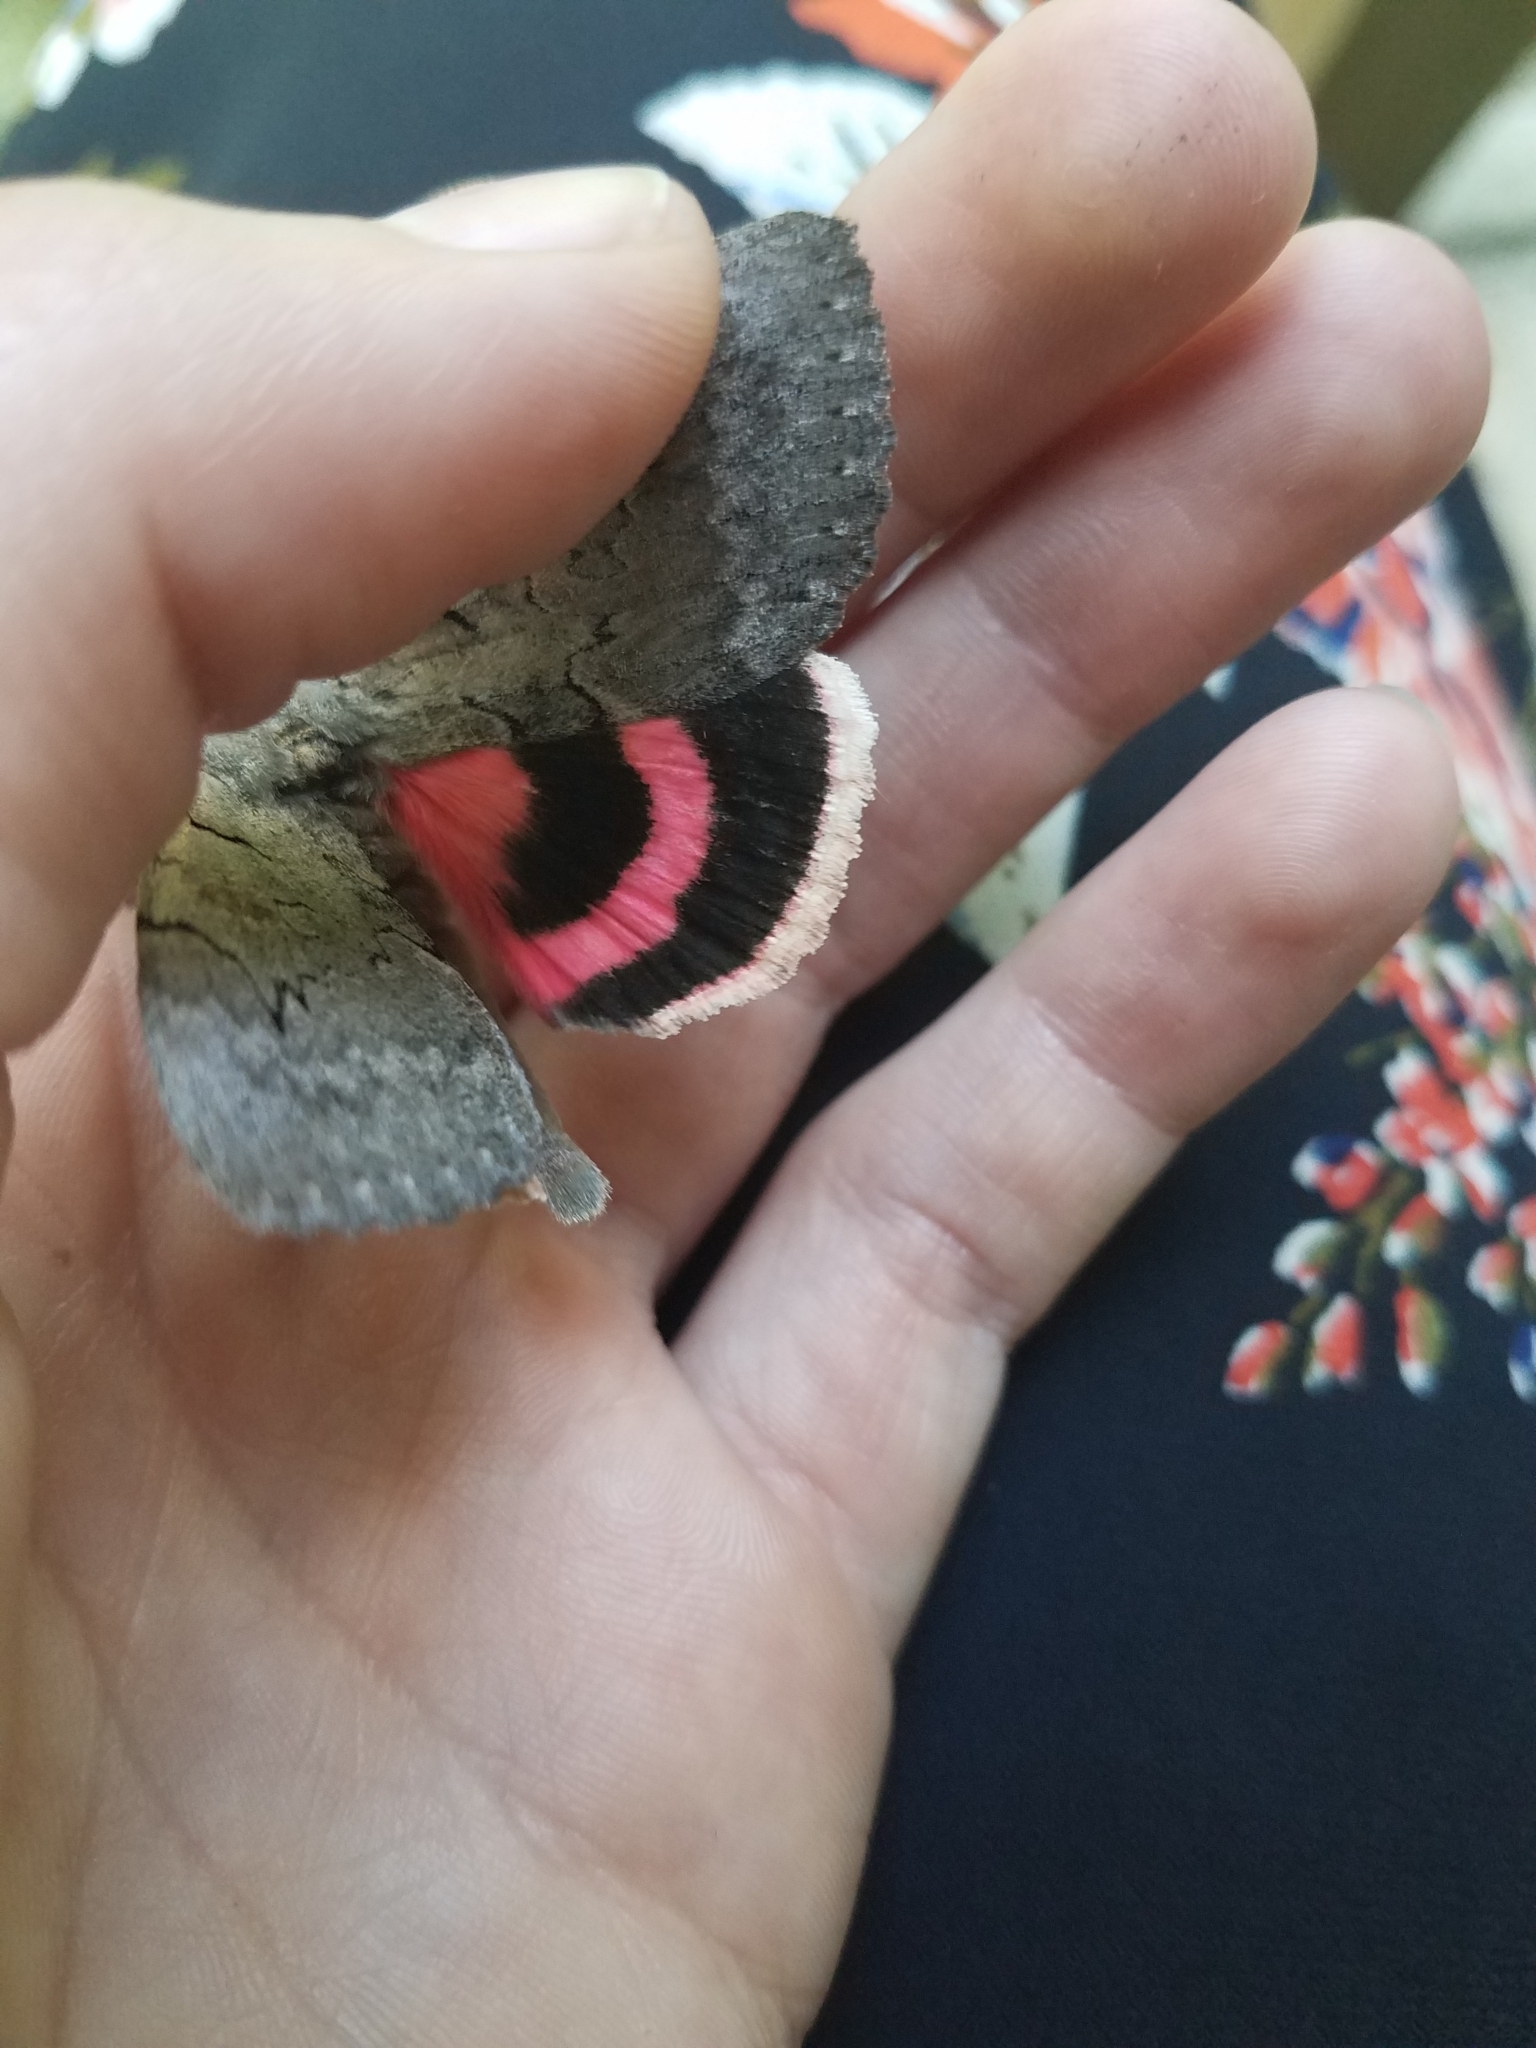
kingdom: Animalia
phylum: Arthropoda
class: Insecta
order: Lepidoptera
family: Erebidae
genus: Catocala
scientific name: Catocala concumbens
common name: Pink underwing
